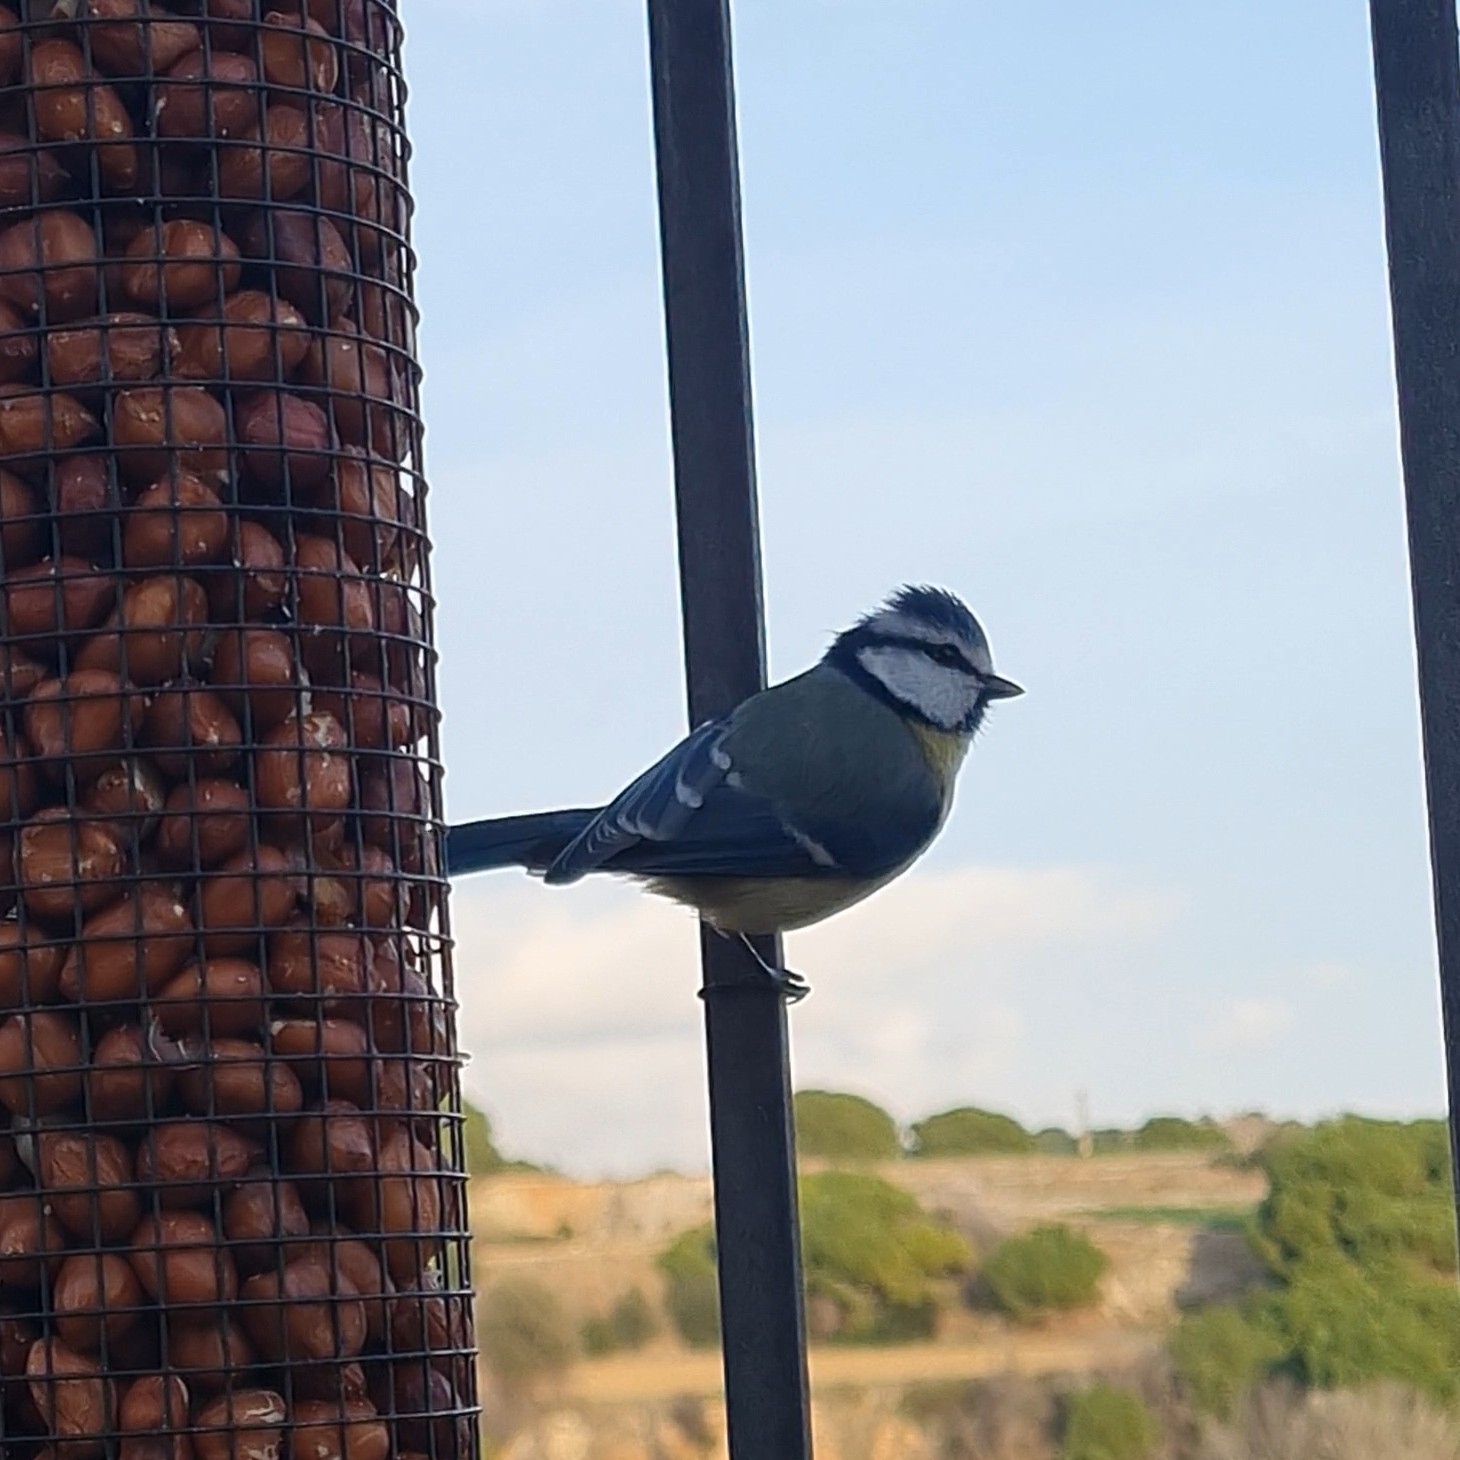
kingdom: Animalia
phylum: Chordata
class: Aves
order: Passeriformes
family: Paridae
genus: Cyanistes
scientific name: Cyanistes caeruleus
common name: Eurasian blue tit
